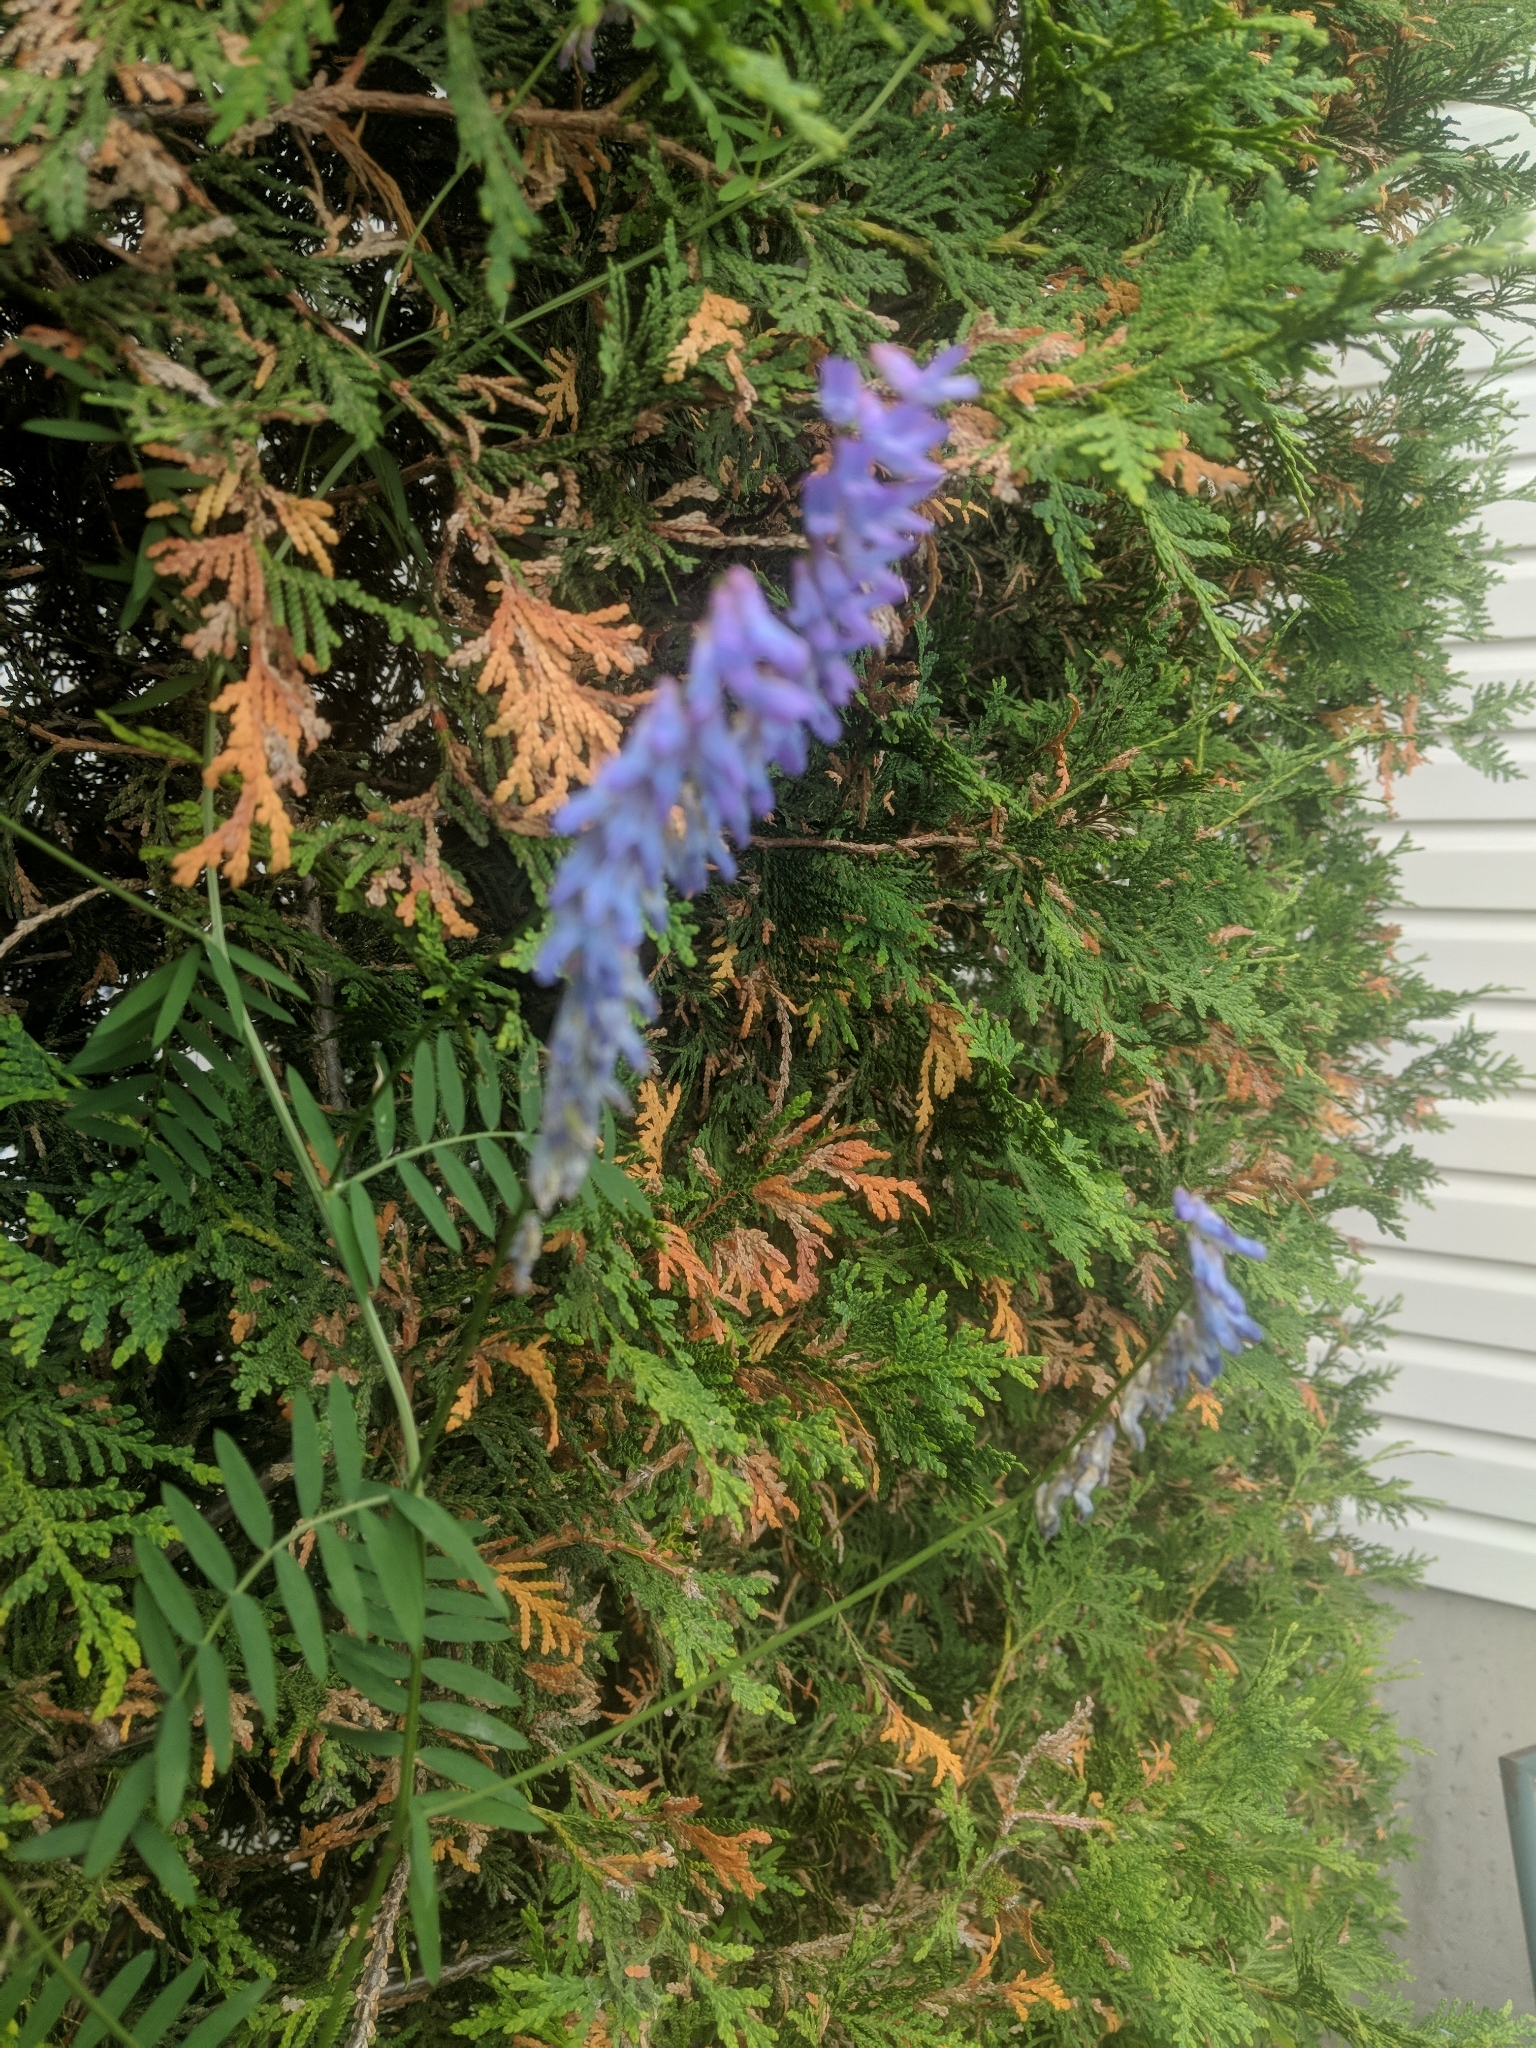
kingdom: Plantae
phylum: Tracheophyta
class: Magnoliopsida
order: Fabales
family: Fabaceae
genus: Vicia
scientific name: Vicia cracca
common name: Bird vetch
